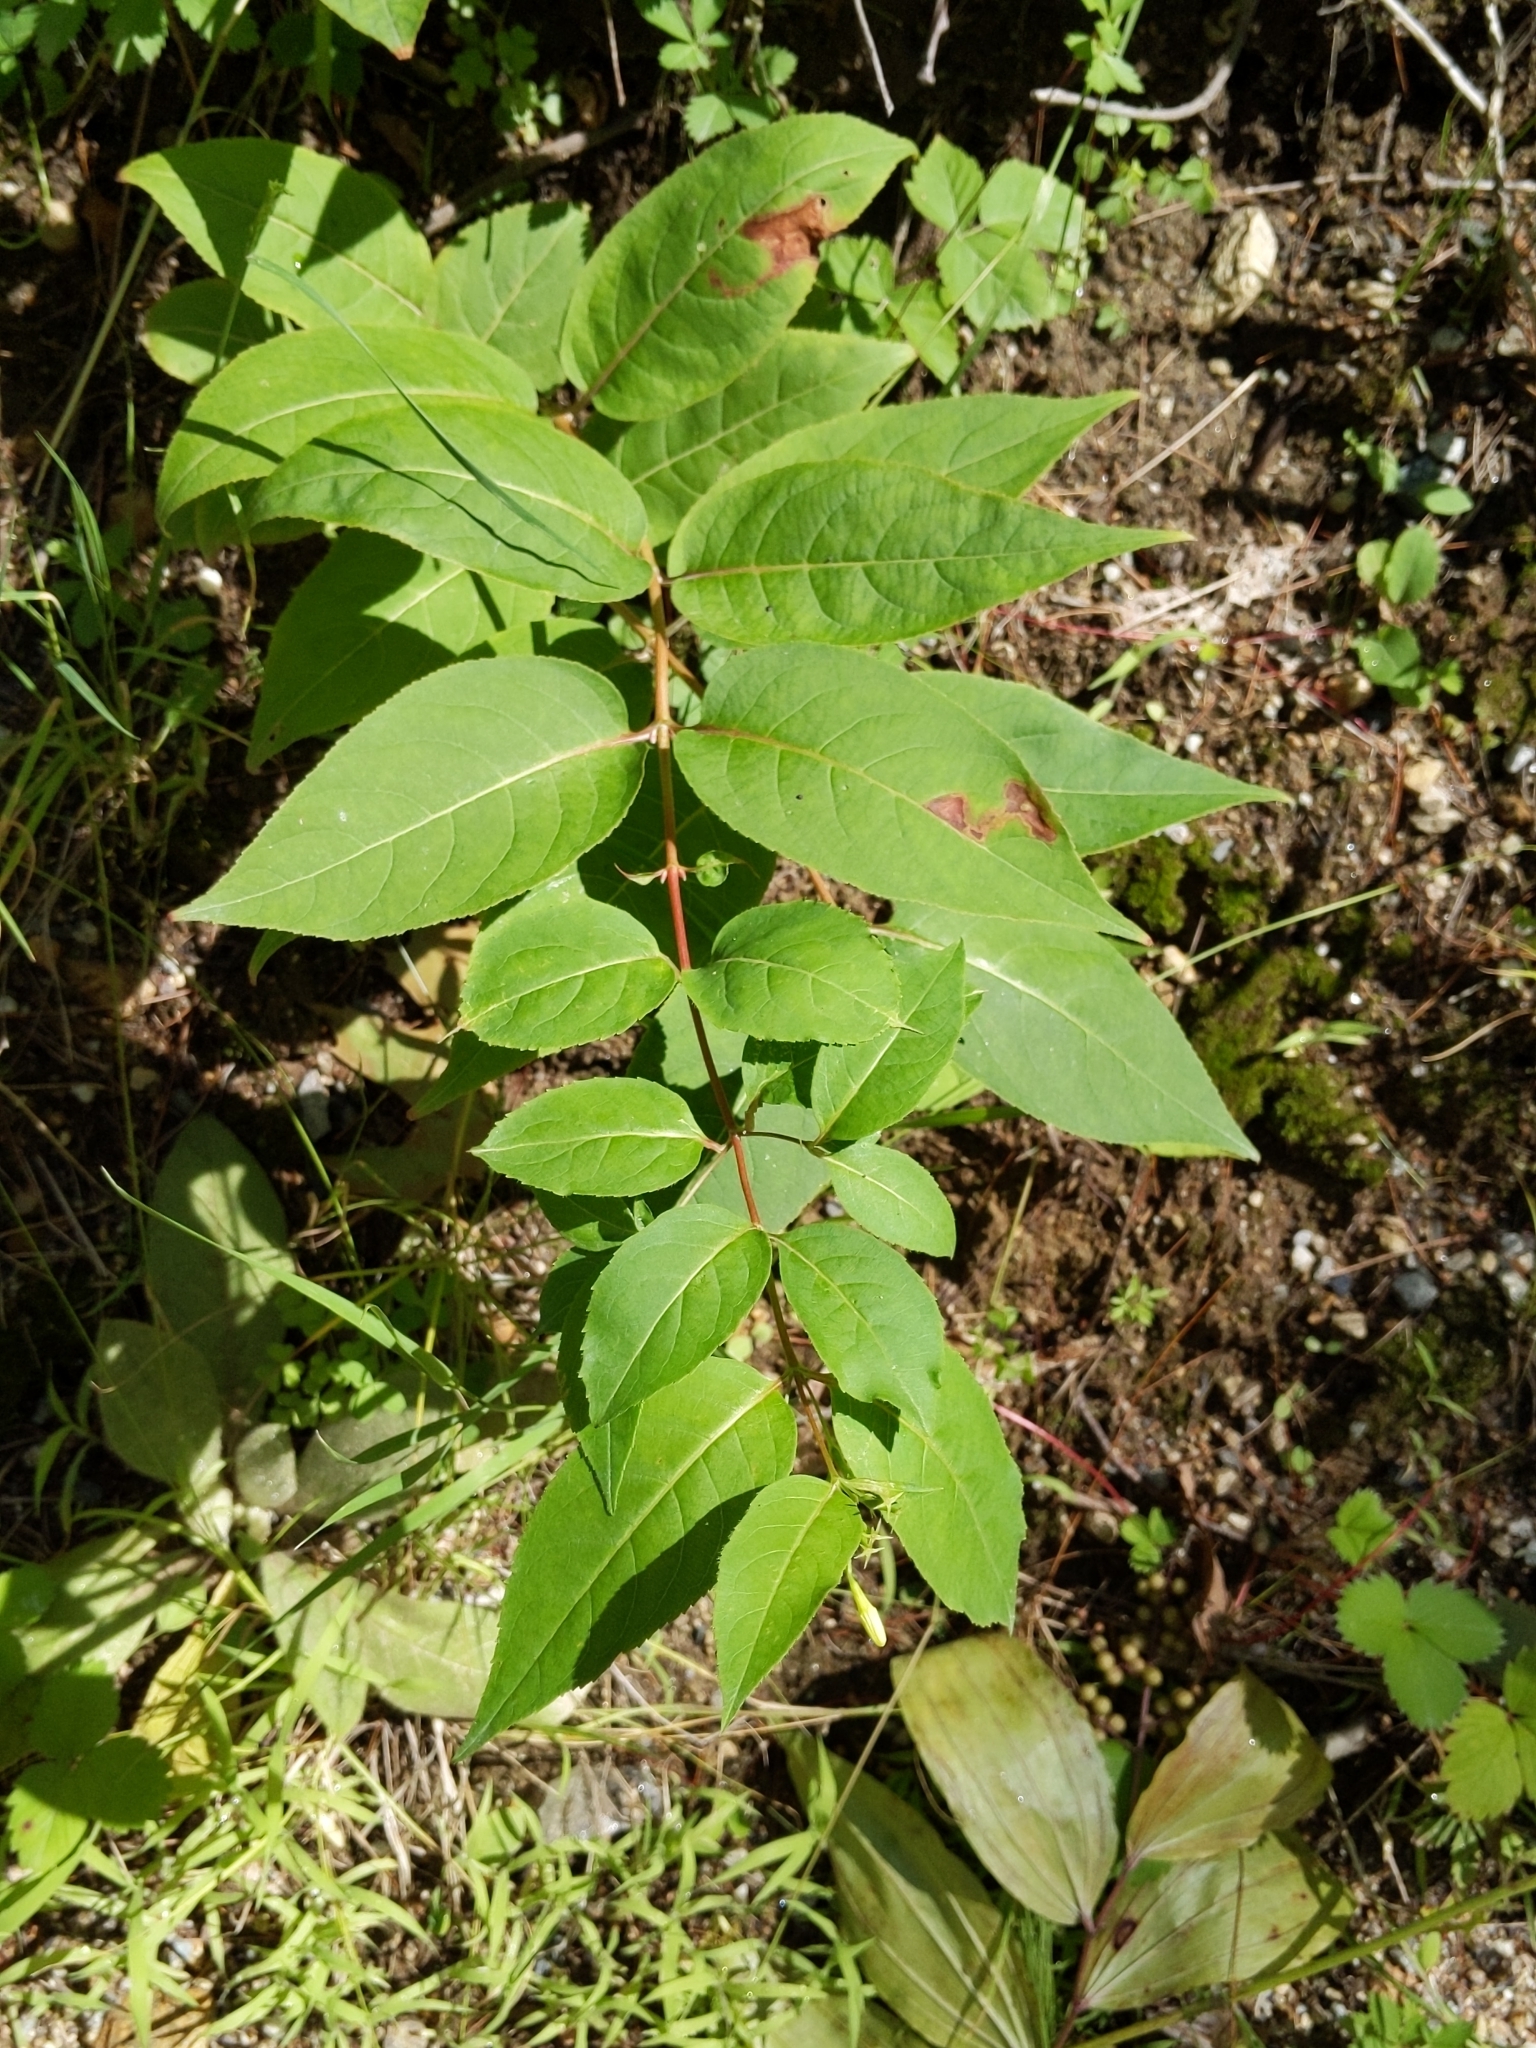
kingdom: Plantae
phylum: Tracheophyta
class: Magnoliopsida
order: Dipsacales
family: Caprifoliaceae
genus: Diervilla
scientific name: Diervilla lonicera
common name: Bush-honeysuckle
